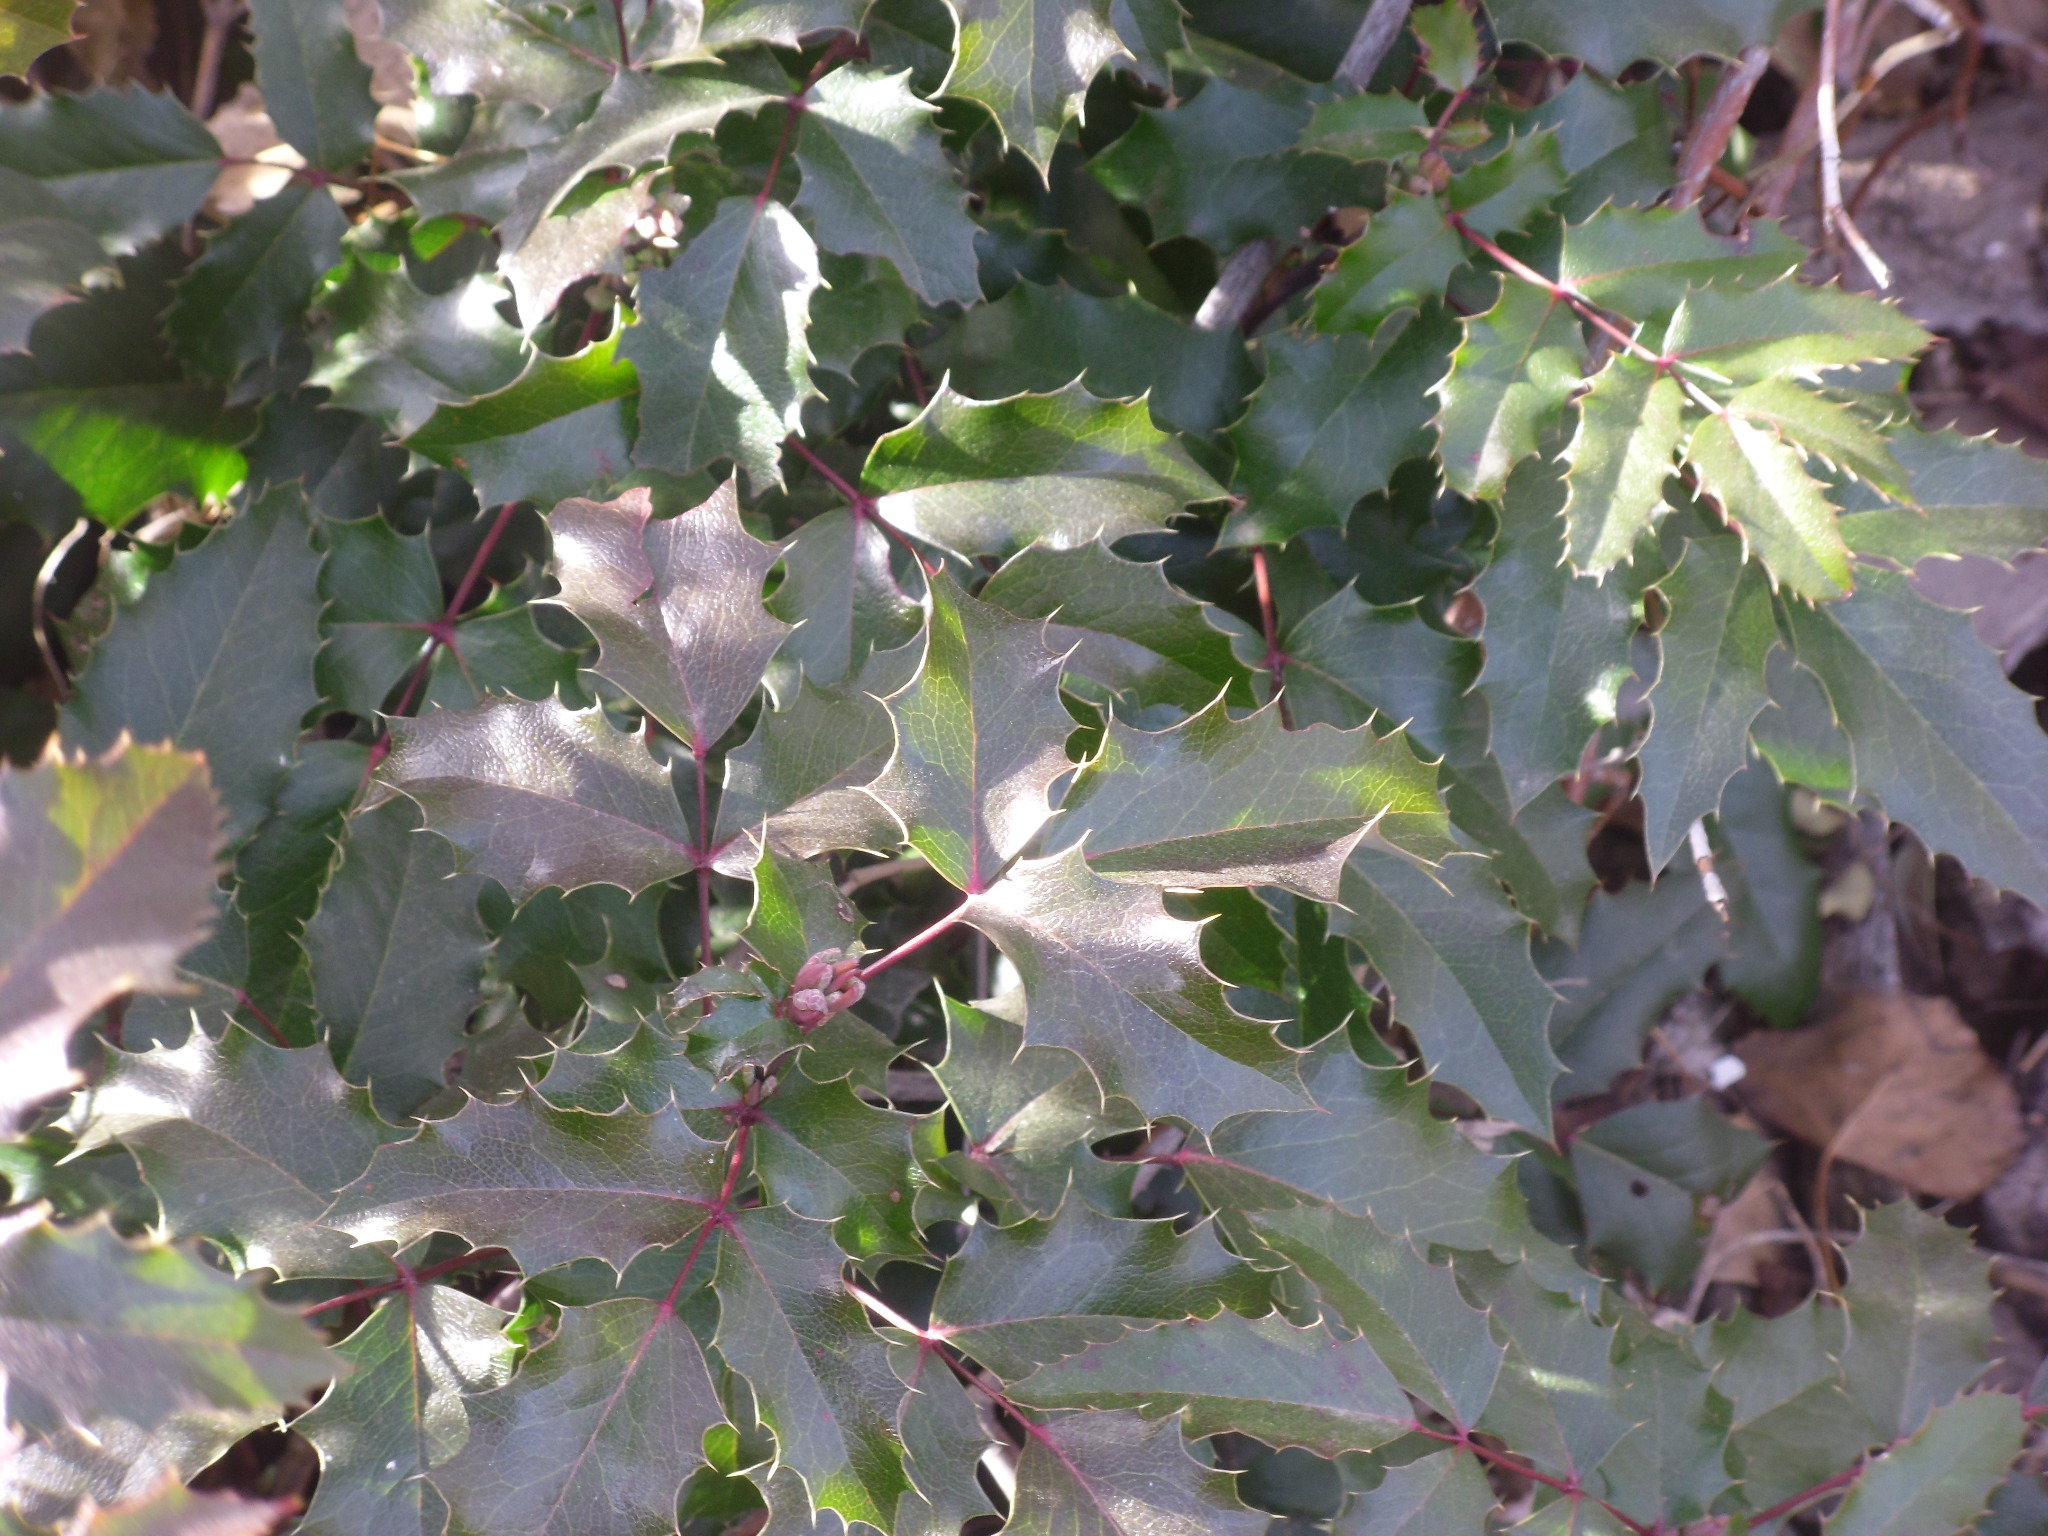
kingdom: Plantae
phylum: Tracheophyta
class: Magnoliopsida
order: Ranunculales
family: Berberidaceae
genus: Mahonia
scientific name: Mahonia aquifolium
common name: Oregon-grape
